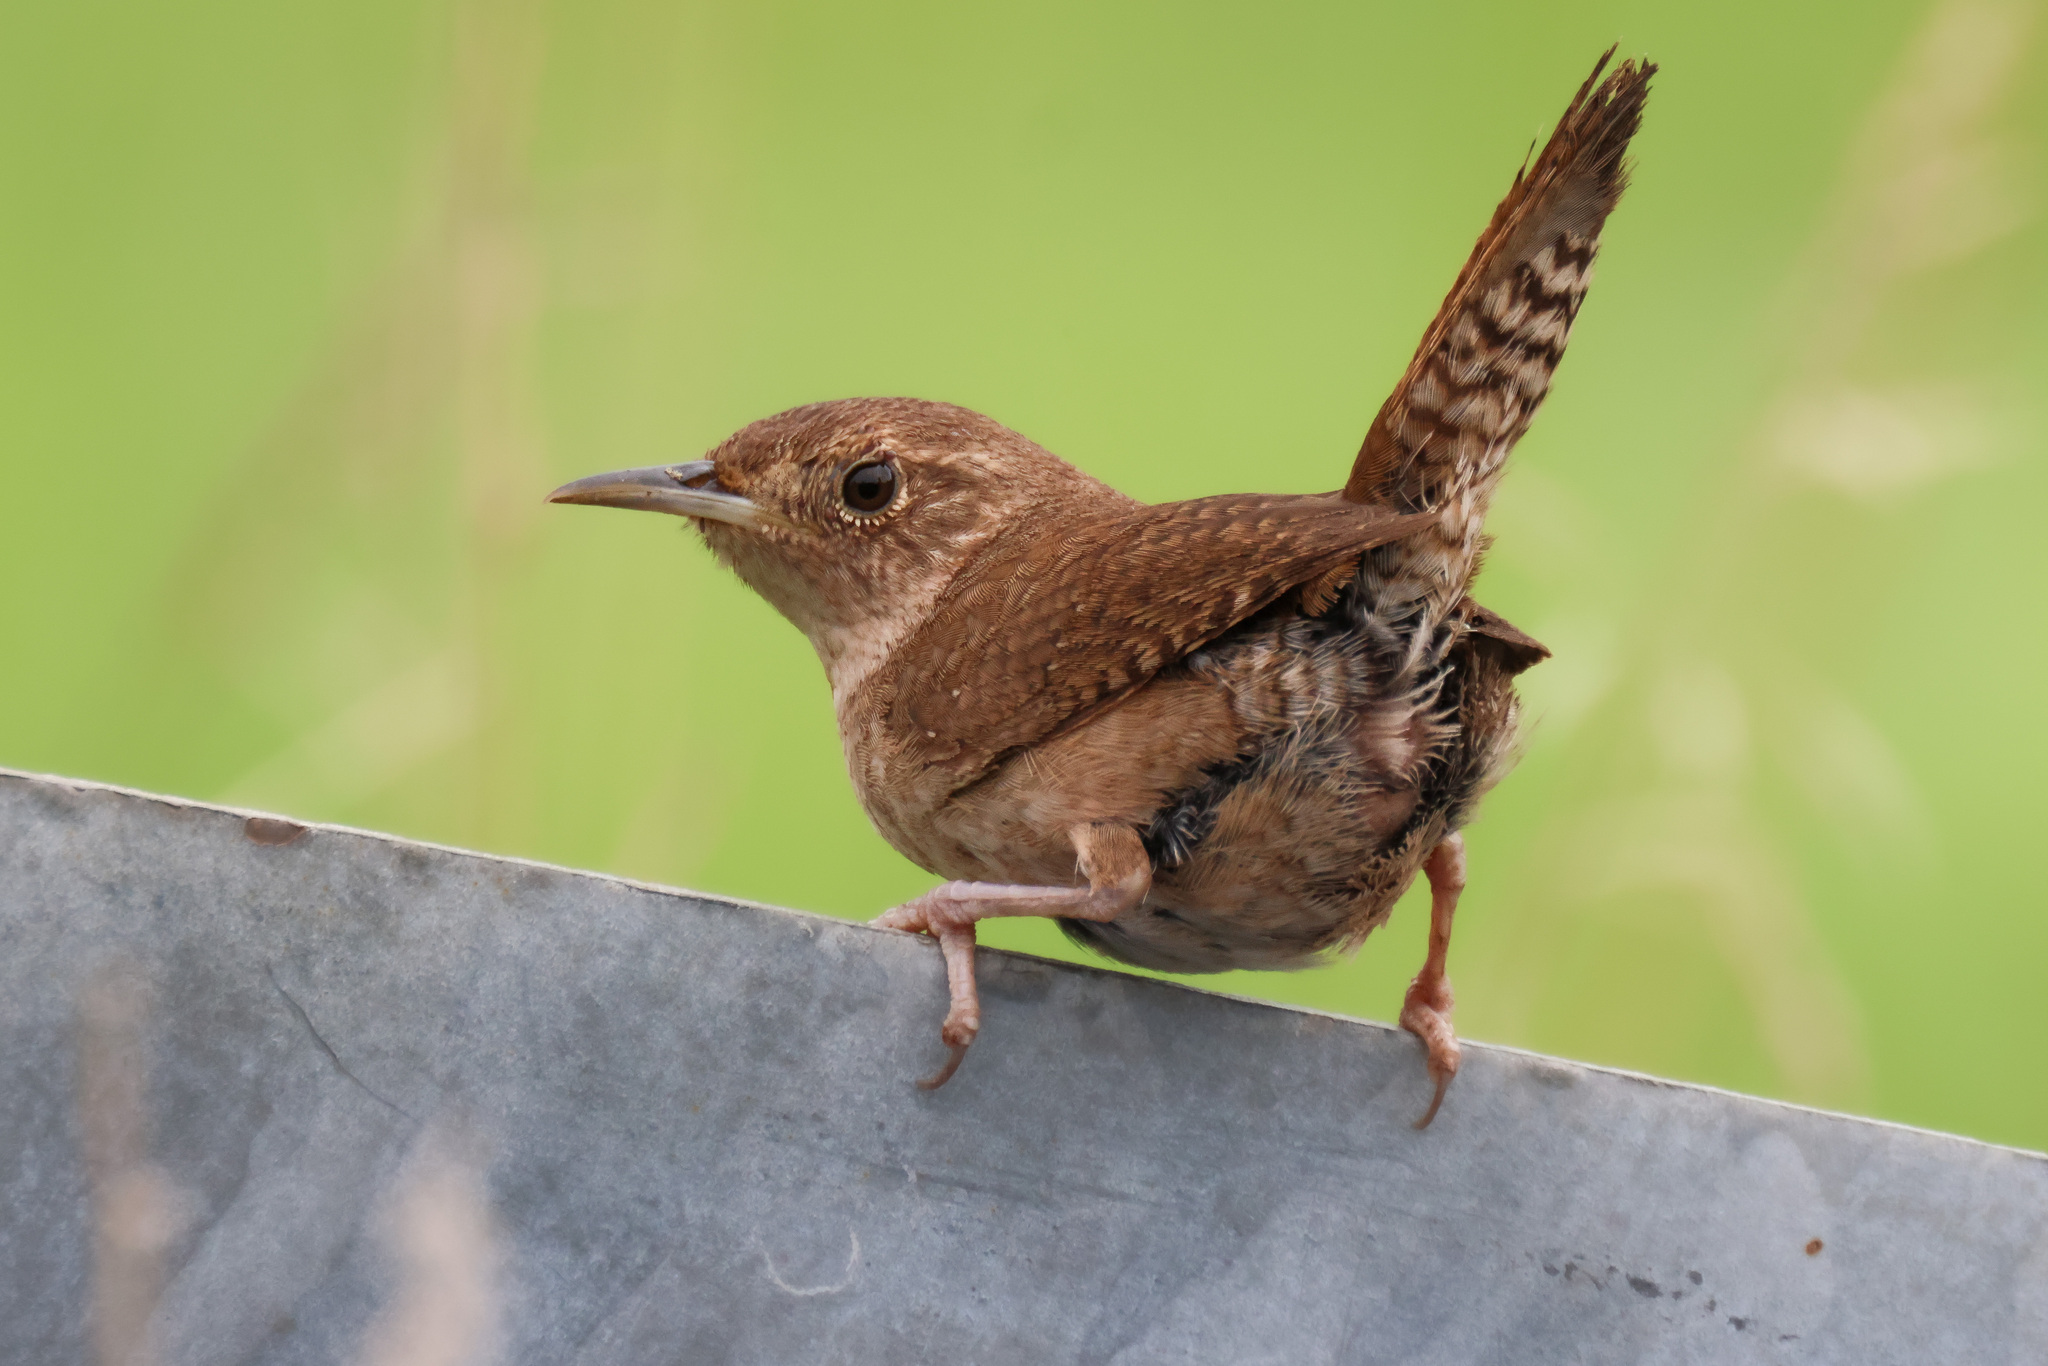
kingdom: Animalia
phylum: Chordata
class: Aves
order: Passeriformes
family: Troglodytidae
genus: Troglodytes
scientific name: Troglodytes aedon
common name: House wren
